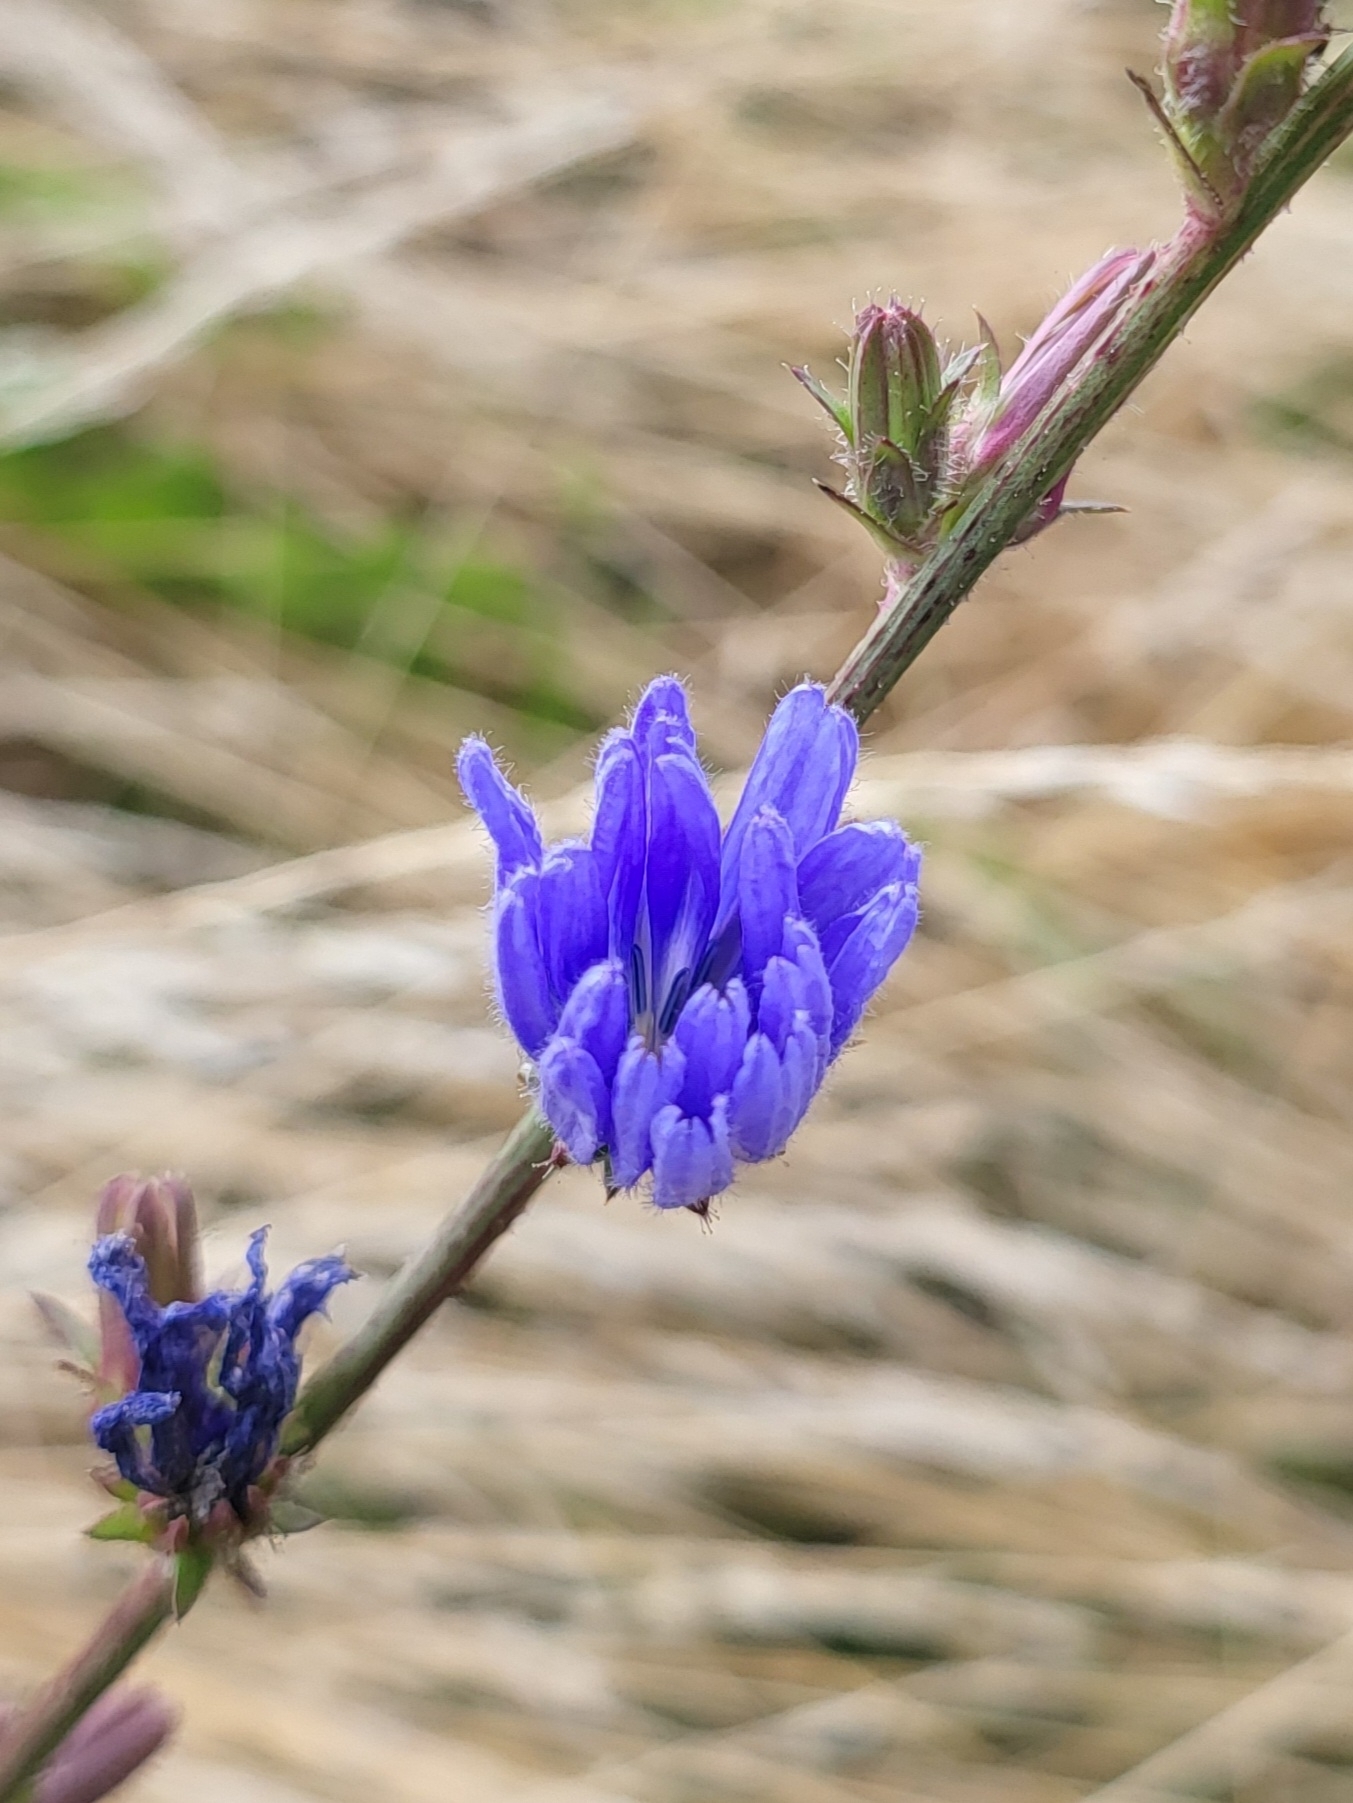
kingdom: Plantae
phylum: Tracheophyta
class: Magnoliopsida
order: Asterales
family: Asteraceae
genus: Cichorium
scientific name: Cichorium intybus
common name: Chicory
